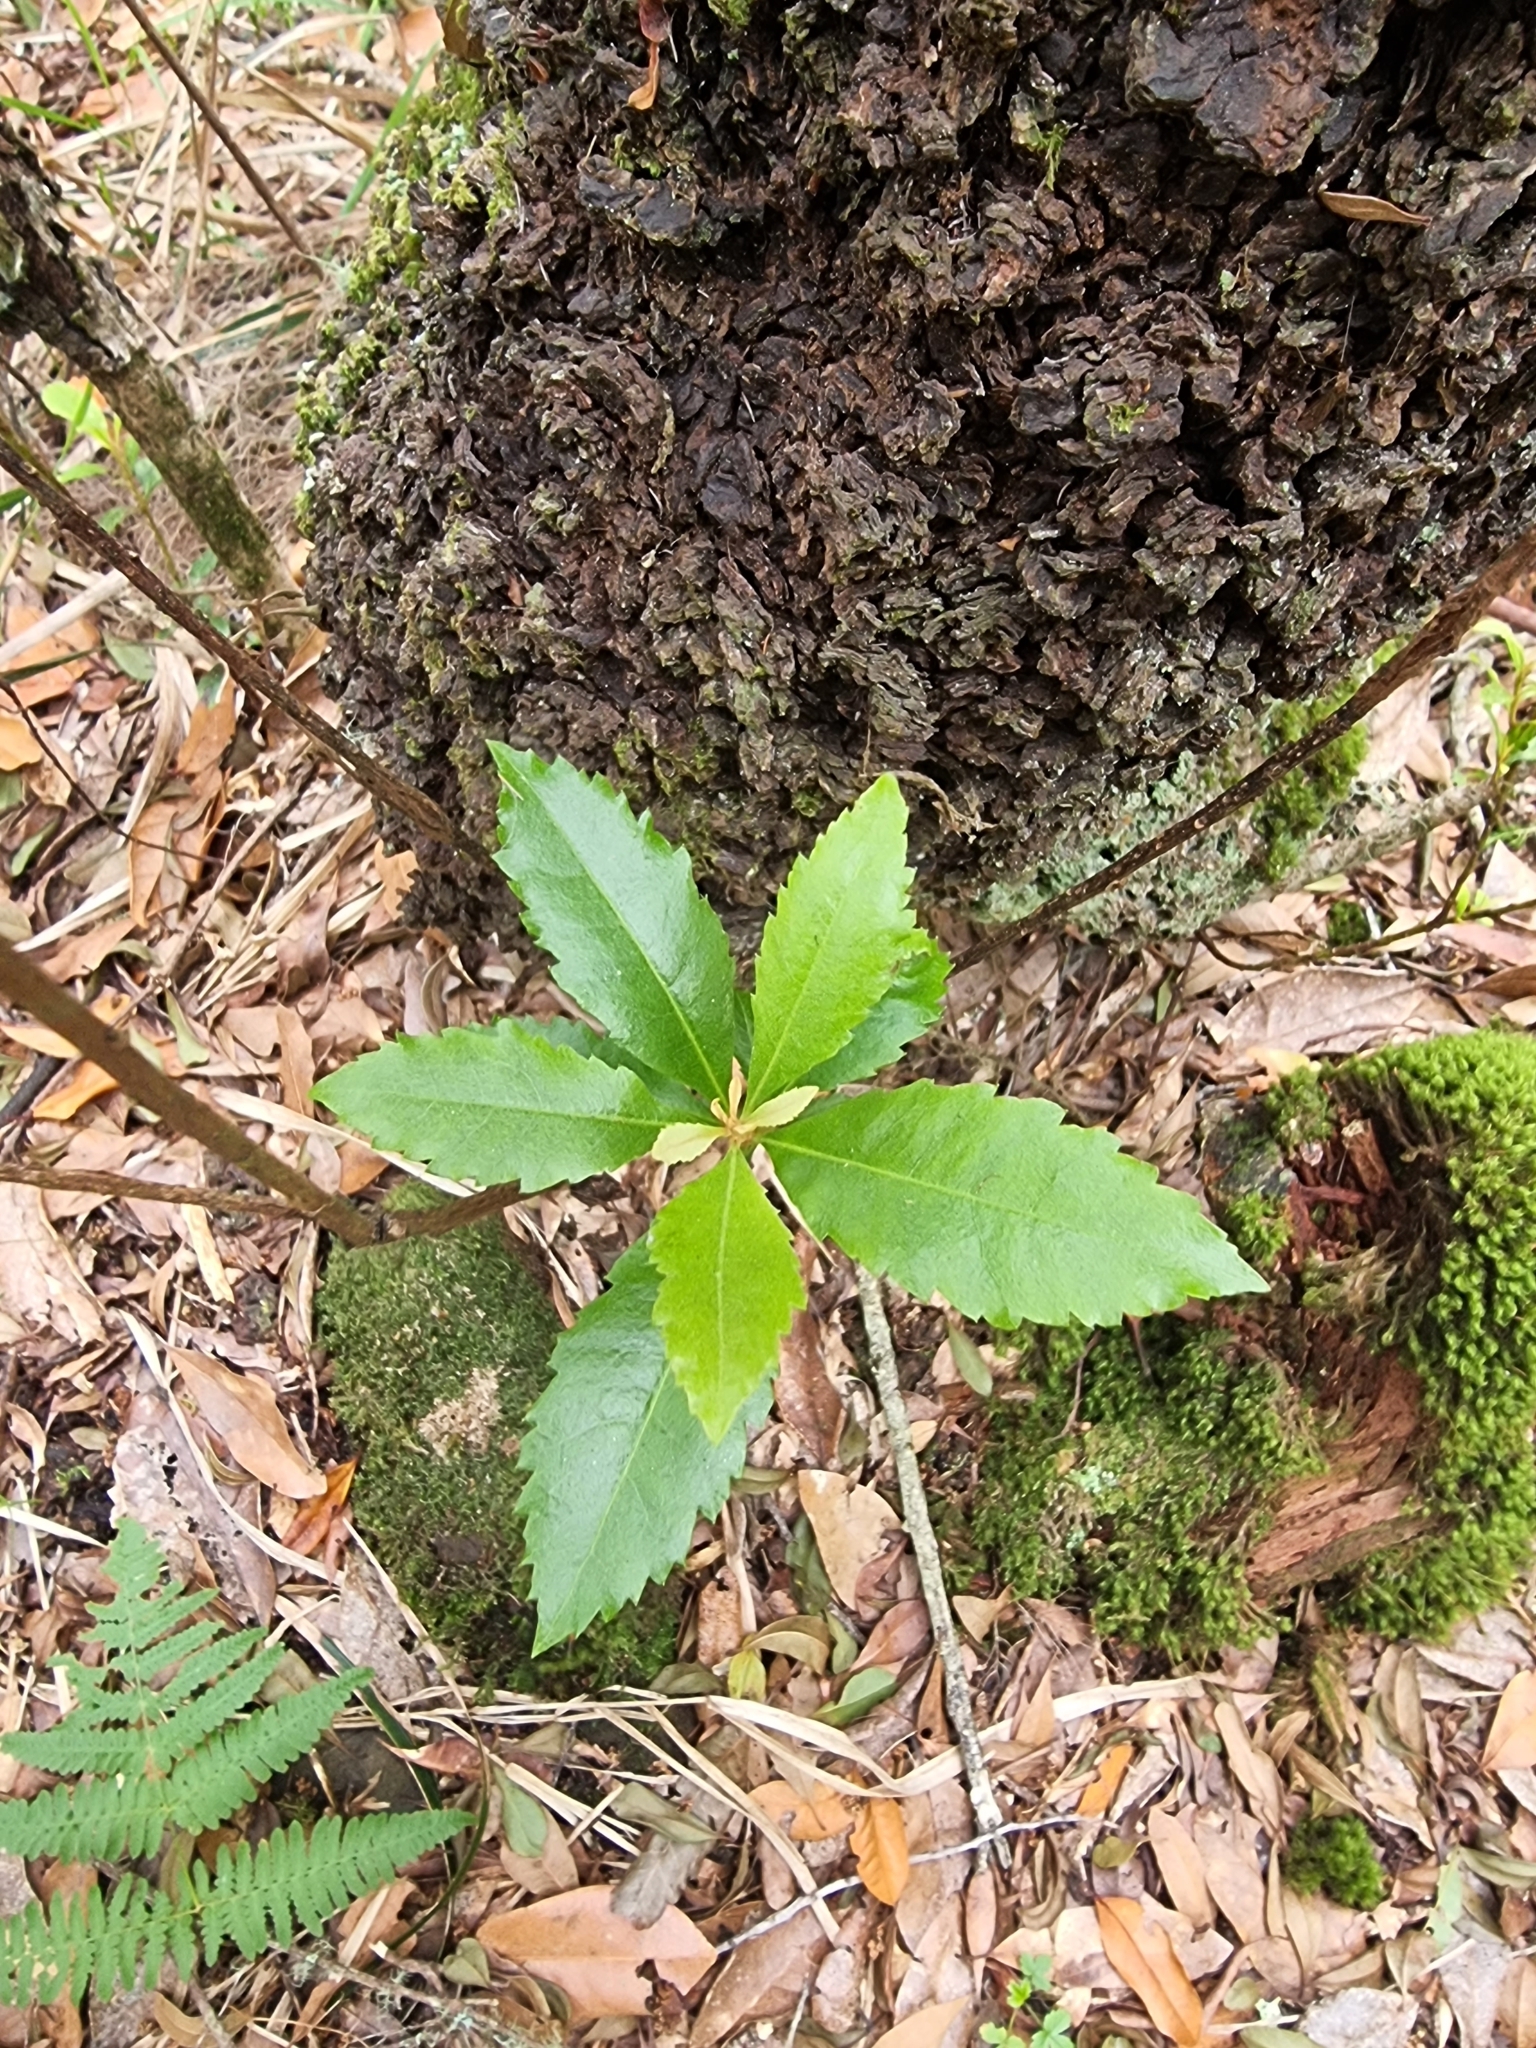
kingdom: Plantae
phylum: Tracheophyta
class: Magnoliopsida
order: Fagales
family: Myricaceae
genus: Morella
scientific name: Morella faya
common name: Firetree
